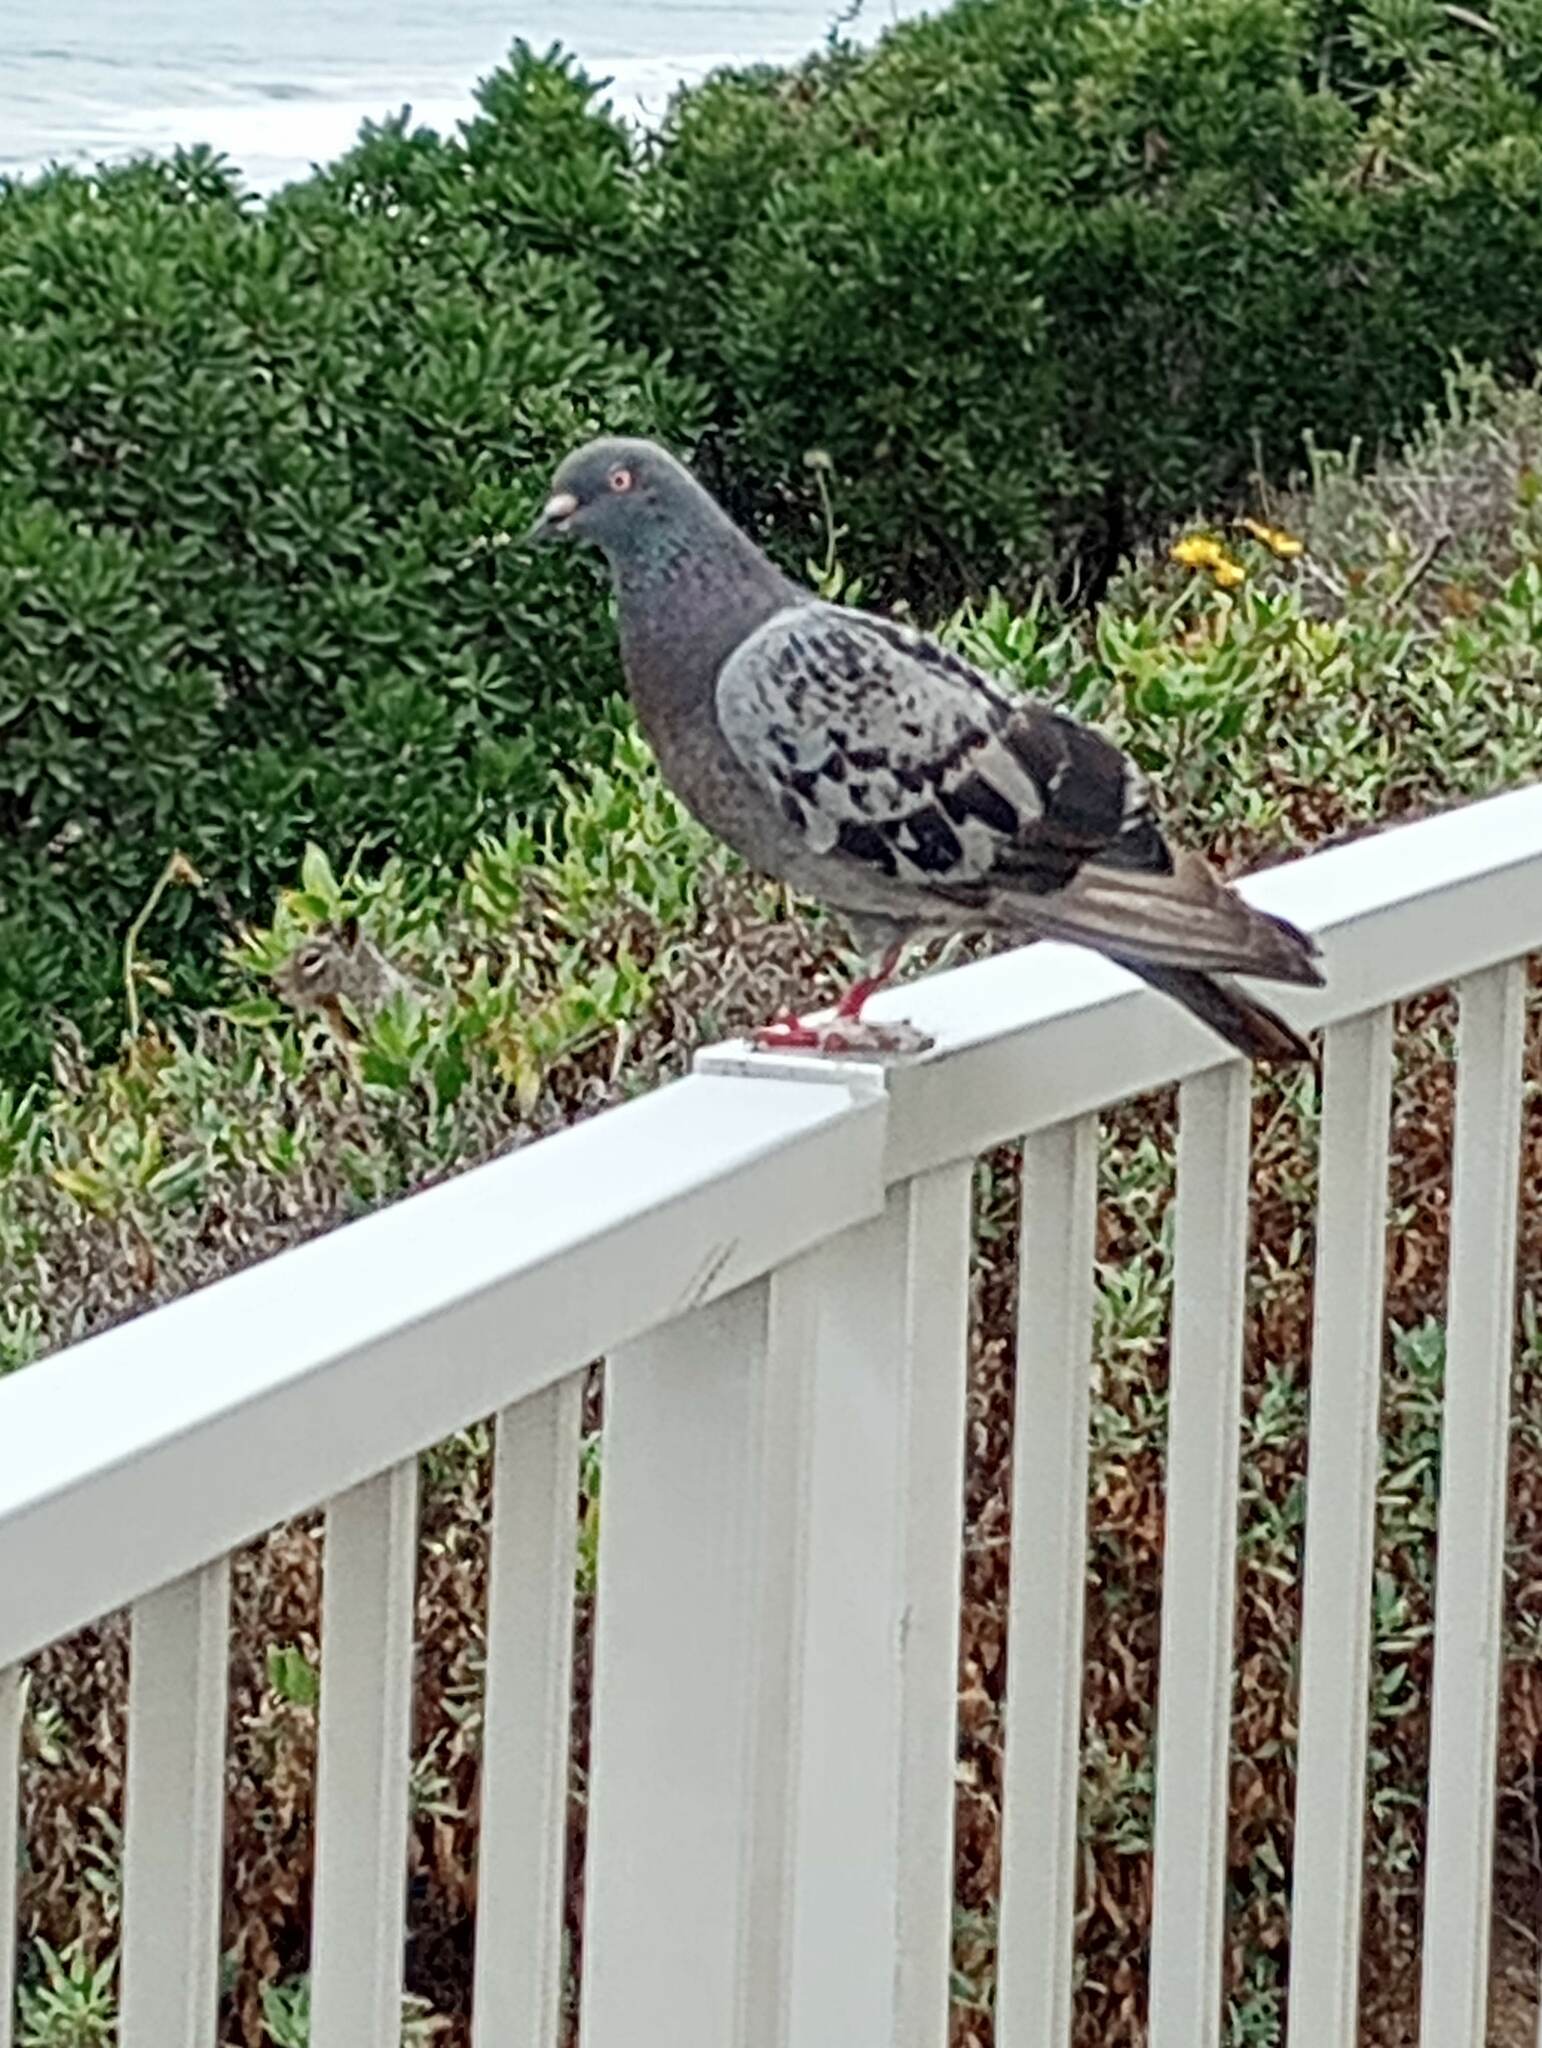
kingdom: Animalia
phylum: Chordata
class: Aves
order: Columbiformes
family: Columbidae
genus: Columba
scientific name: Columba livia
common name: Rock pigeon
